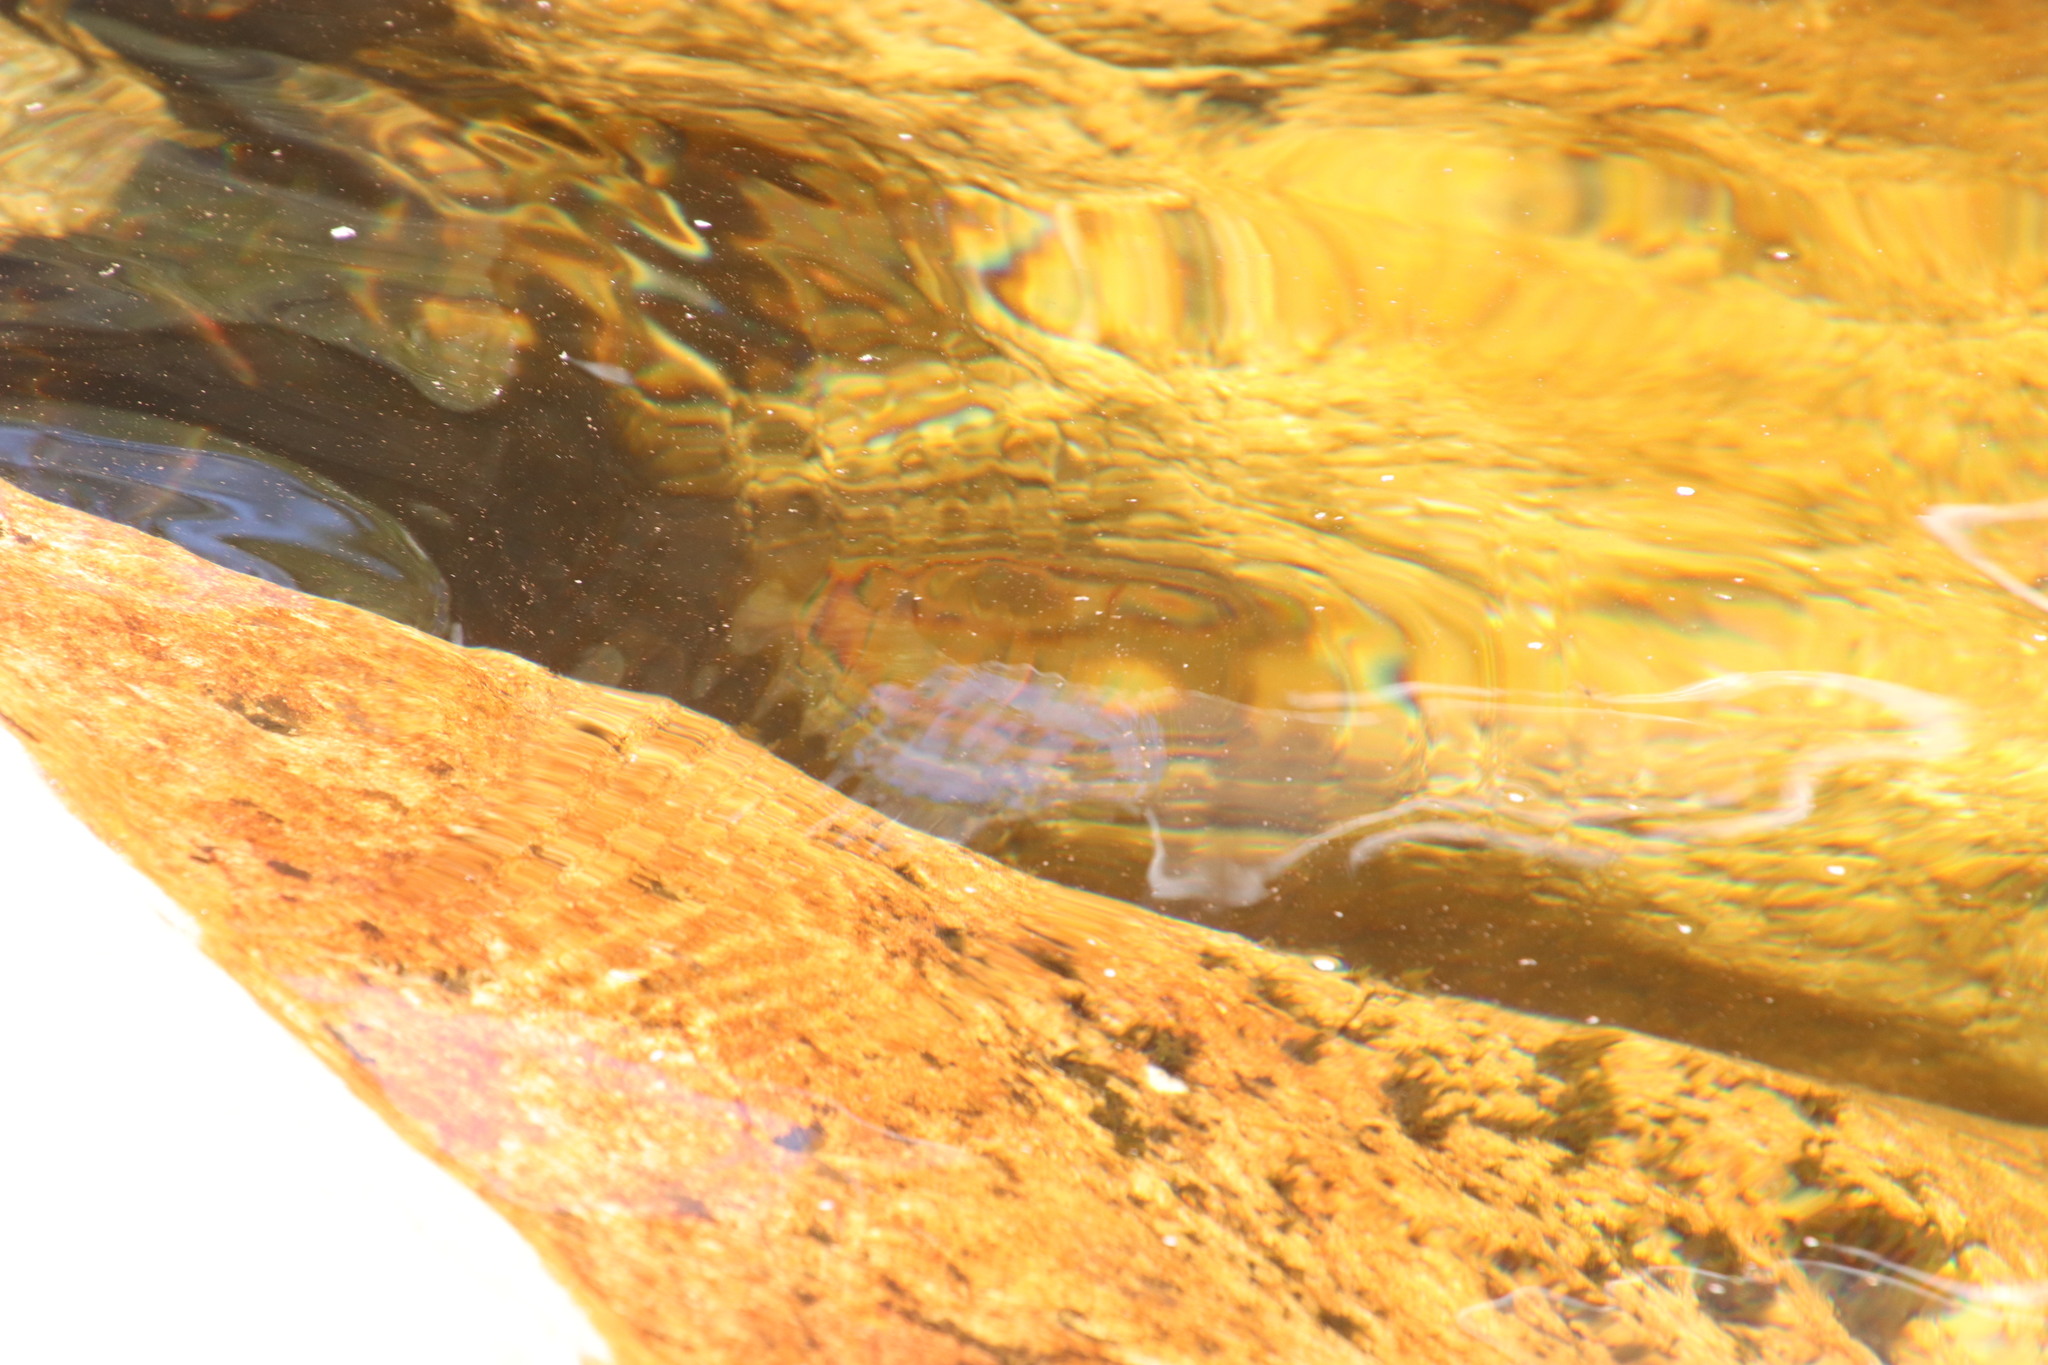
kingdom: Animalia
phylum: Chordata
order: Cypriniformes
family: Cyprinidae
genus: Pseudobarbus
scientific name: Pseudobarbus burchelli
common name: Burchell's redfin
